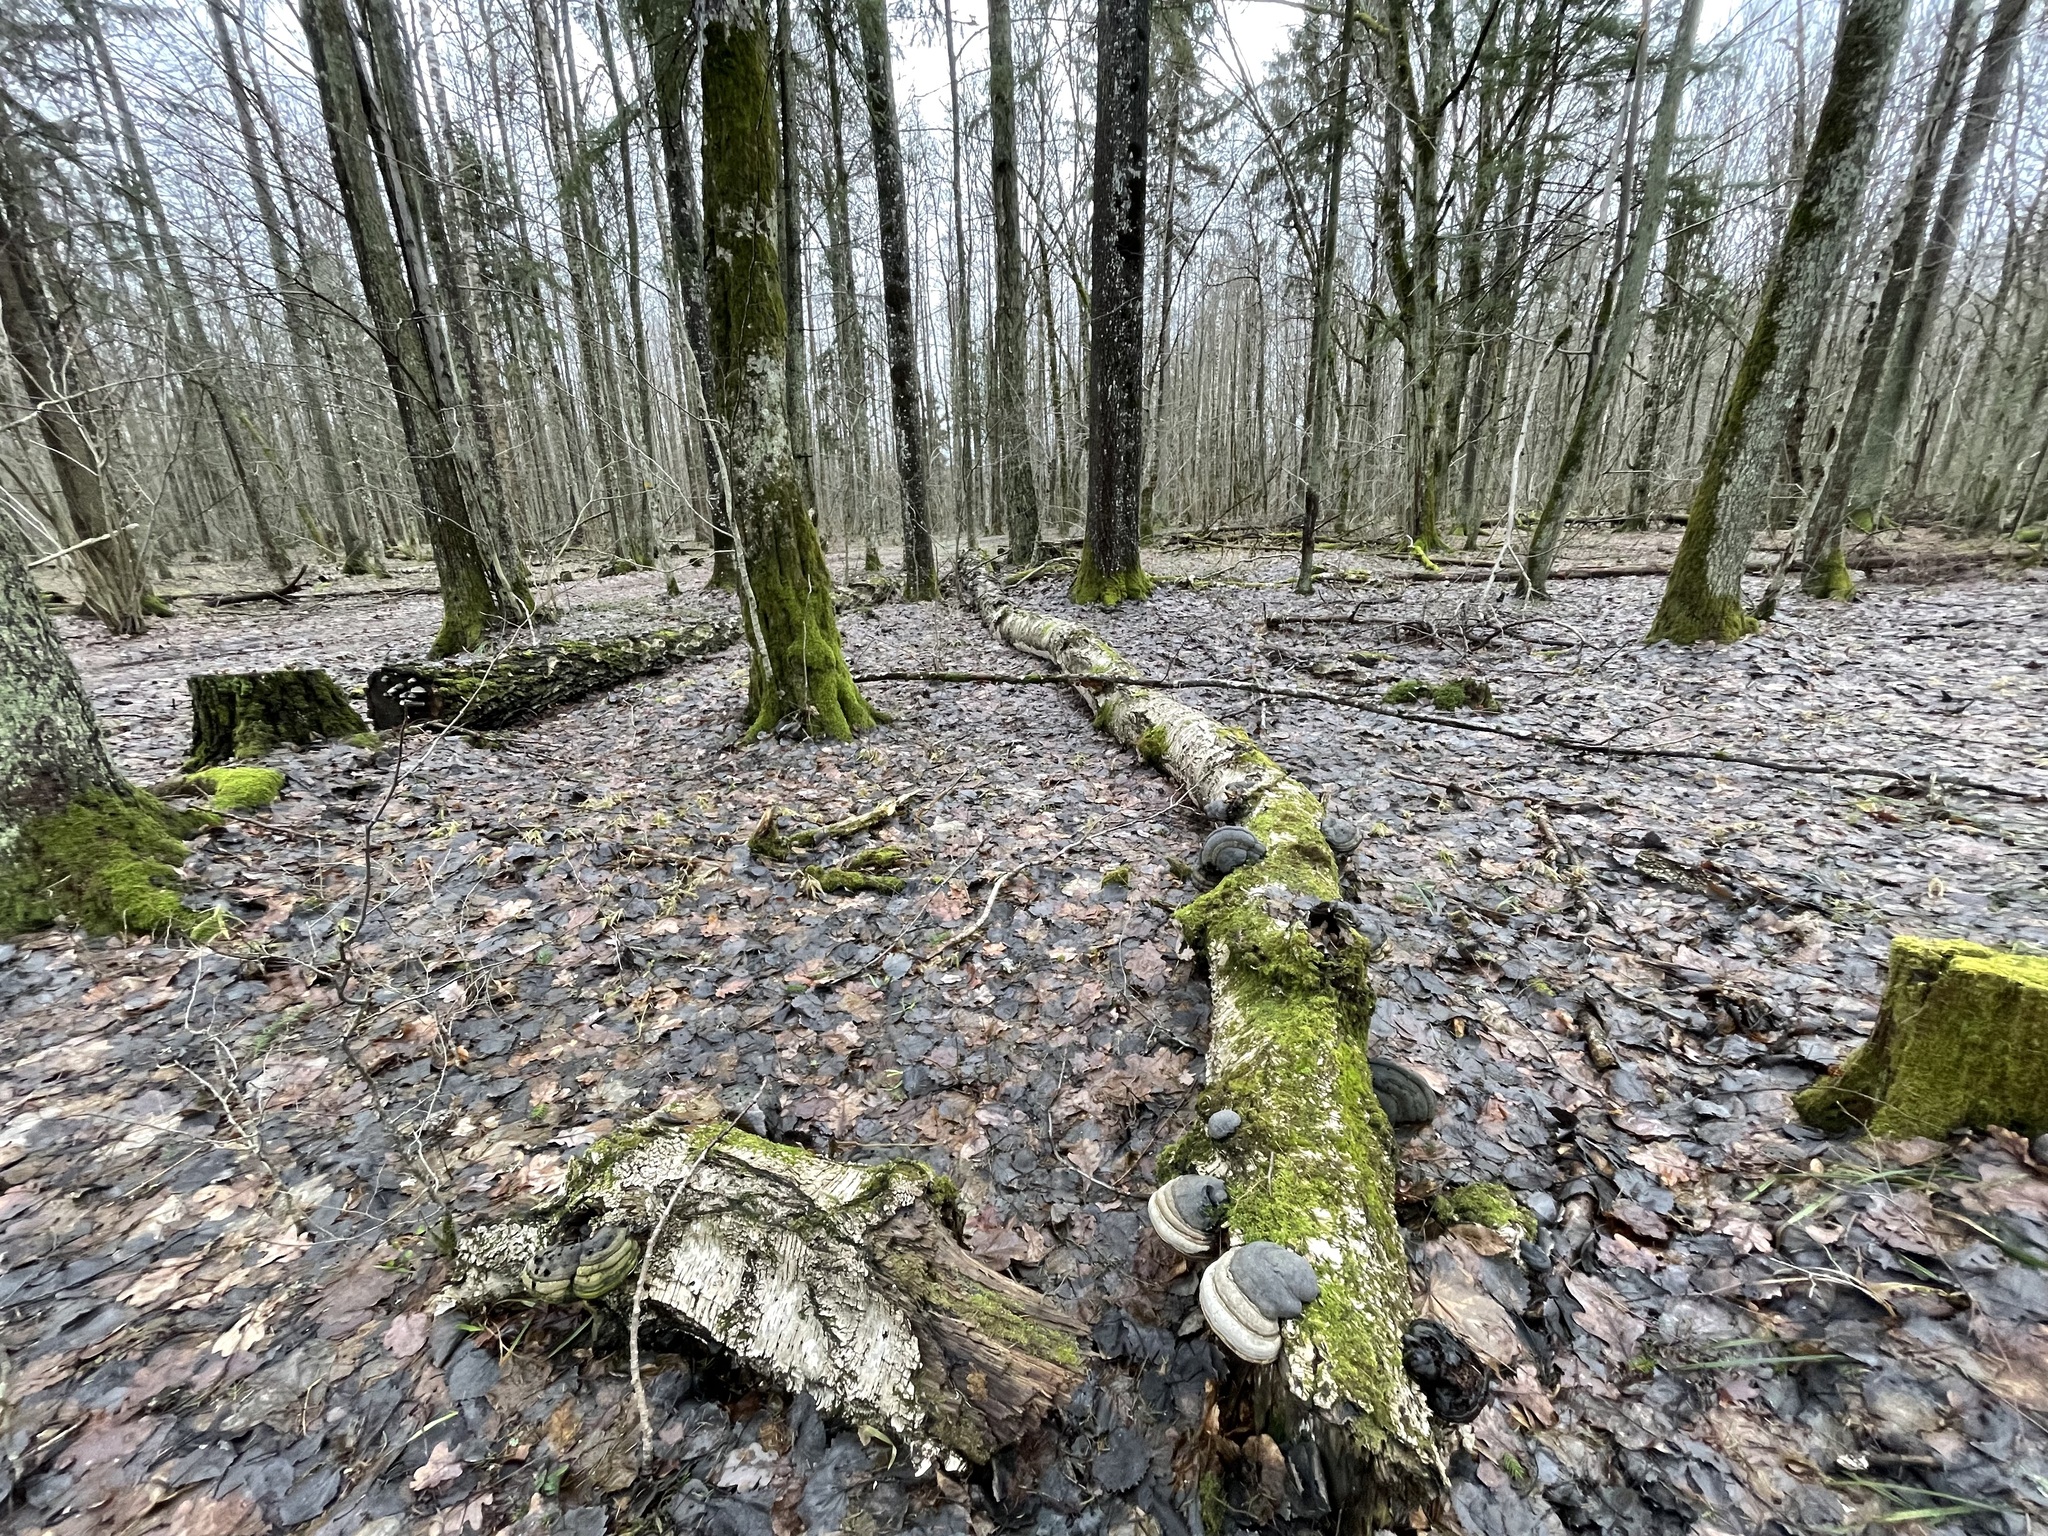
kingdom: Fungi
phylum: Basidiomycota
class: Agaricomycetes
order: Polyporales
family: Polyporaceae
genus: Fomes
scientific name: Fomes fomentarius
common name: Hoof fungus
